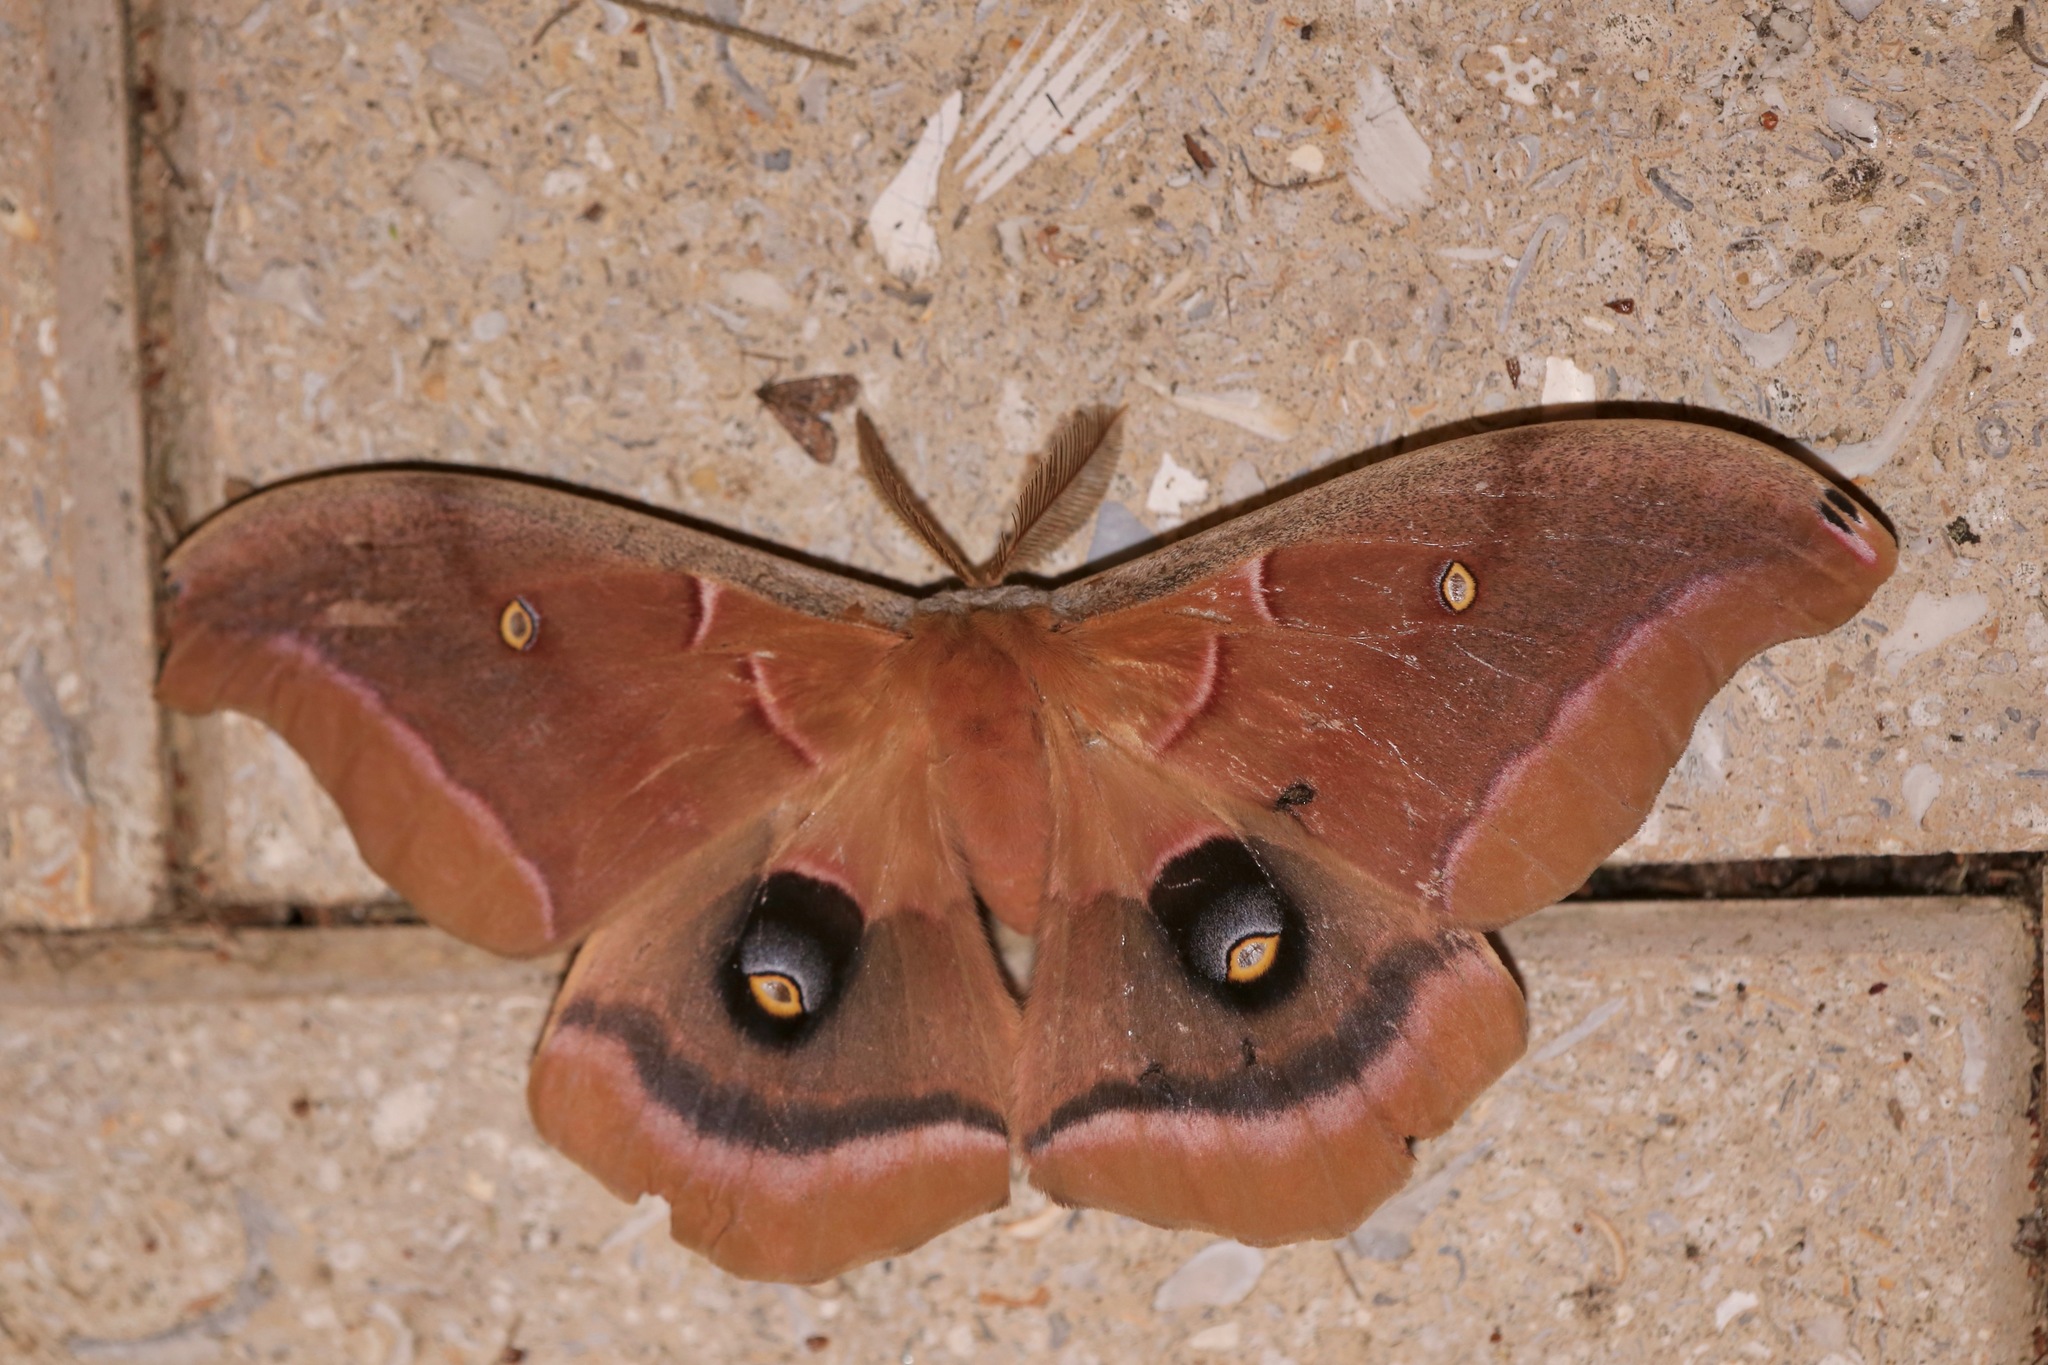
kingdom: Animalia
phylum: Arthropoda
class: Insecta
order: Lepidoptera
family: Saturniidae
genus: Antheraea
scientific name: Antheraea polyphemus
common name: Polyphemus moth
